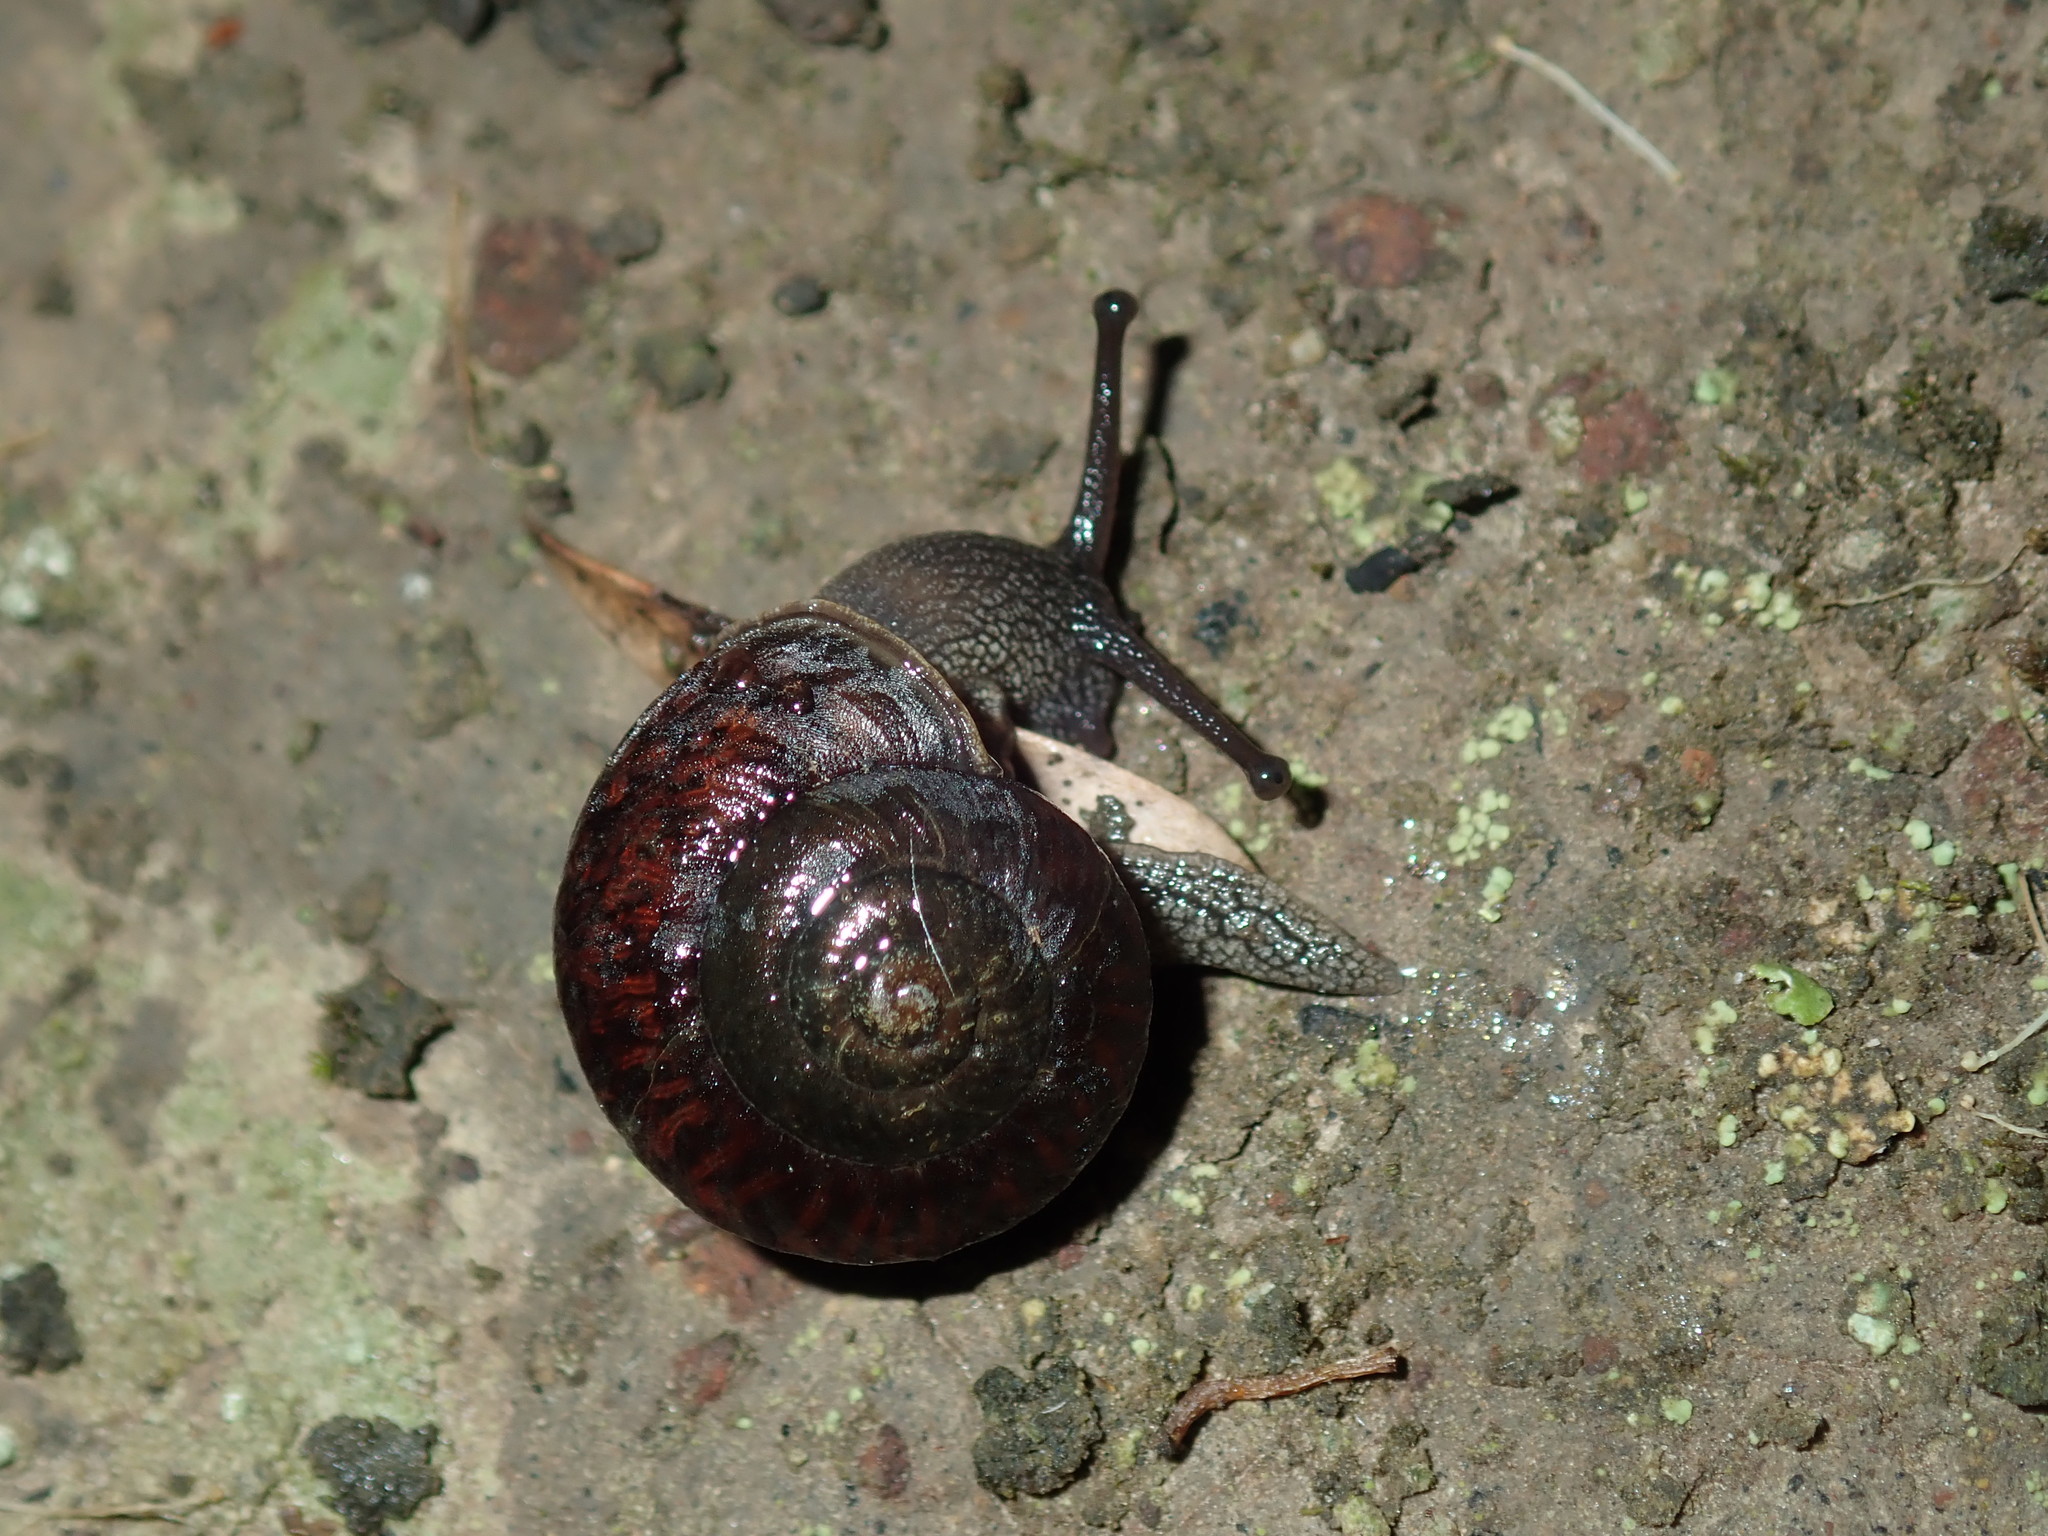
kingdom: Animalia
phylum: Mollusca
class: Gastropoda
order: Stylommatophora
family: Camaenidae
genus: Sauroconcha
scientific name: Sauroconcha sheai
